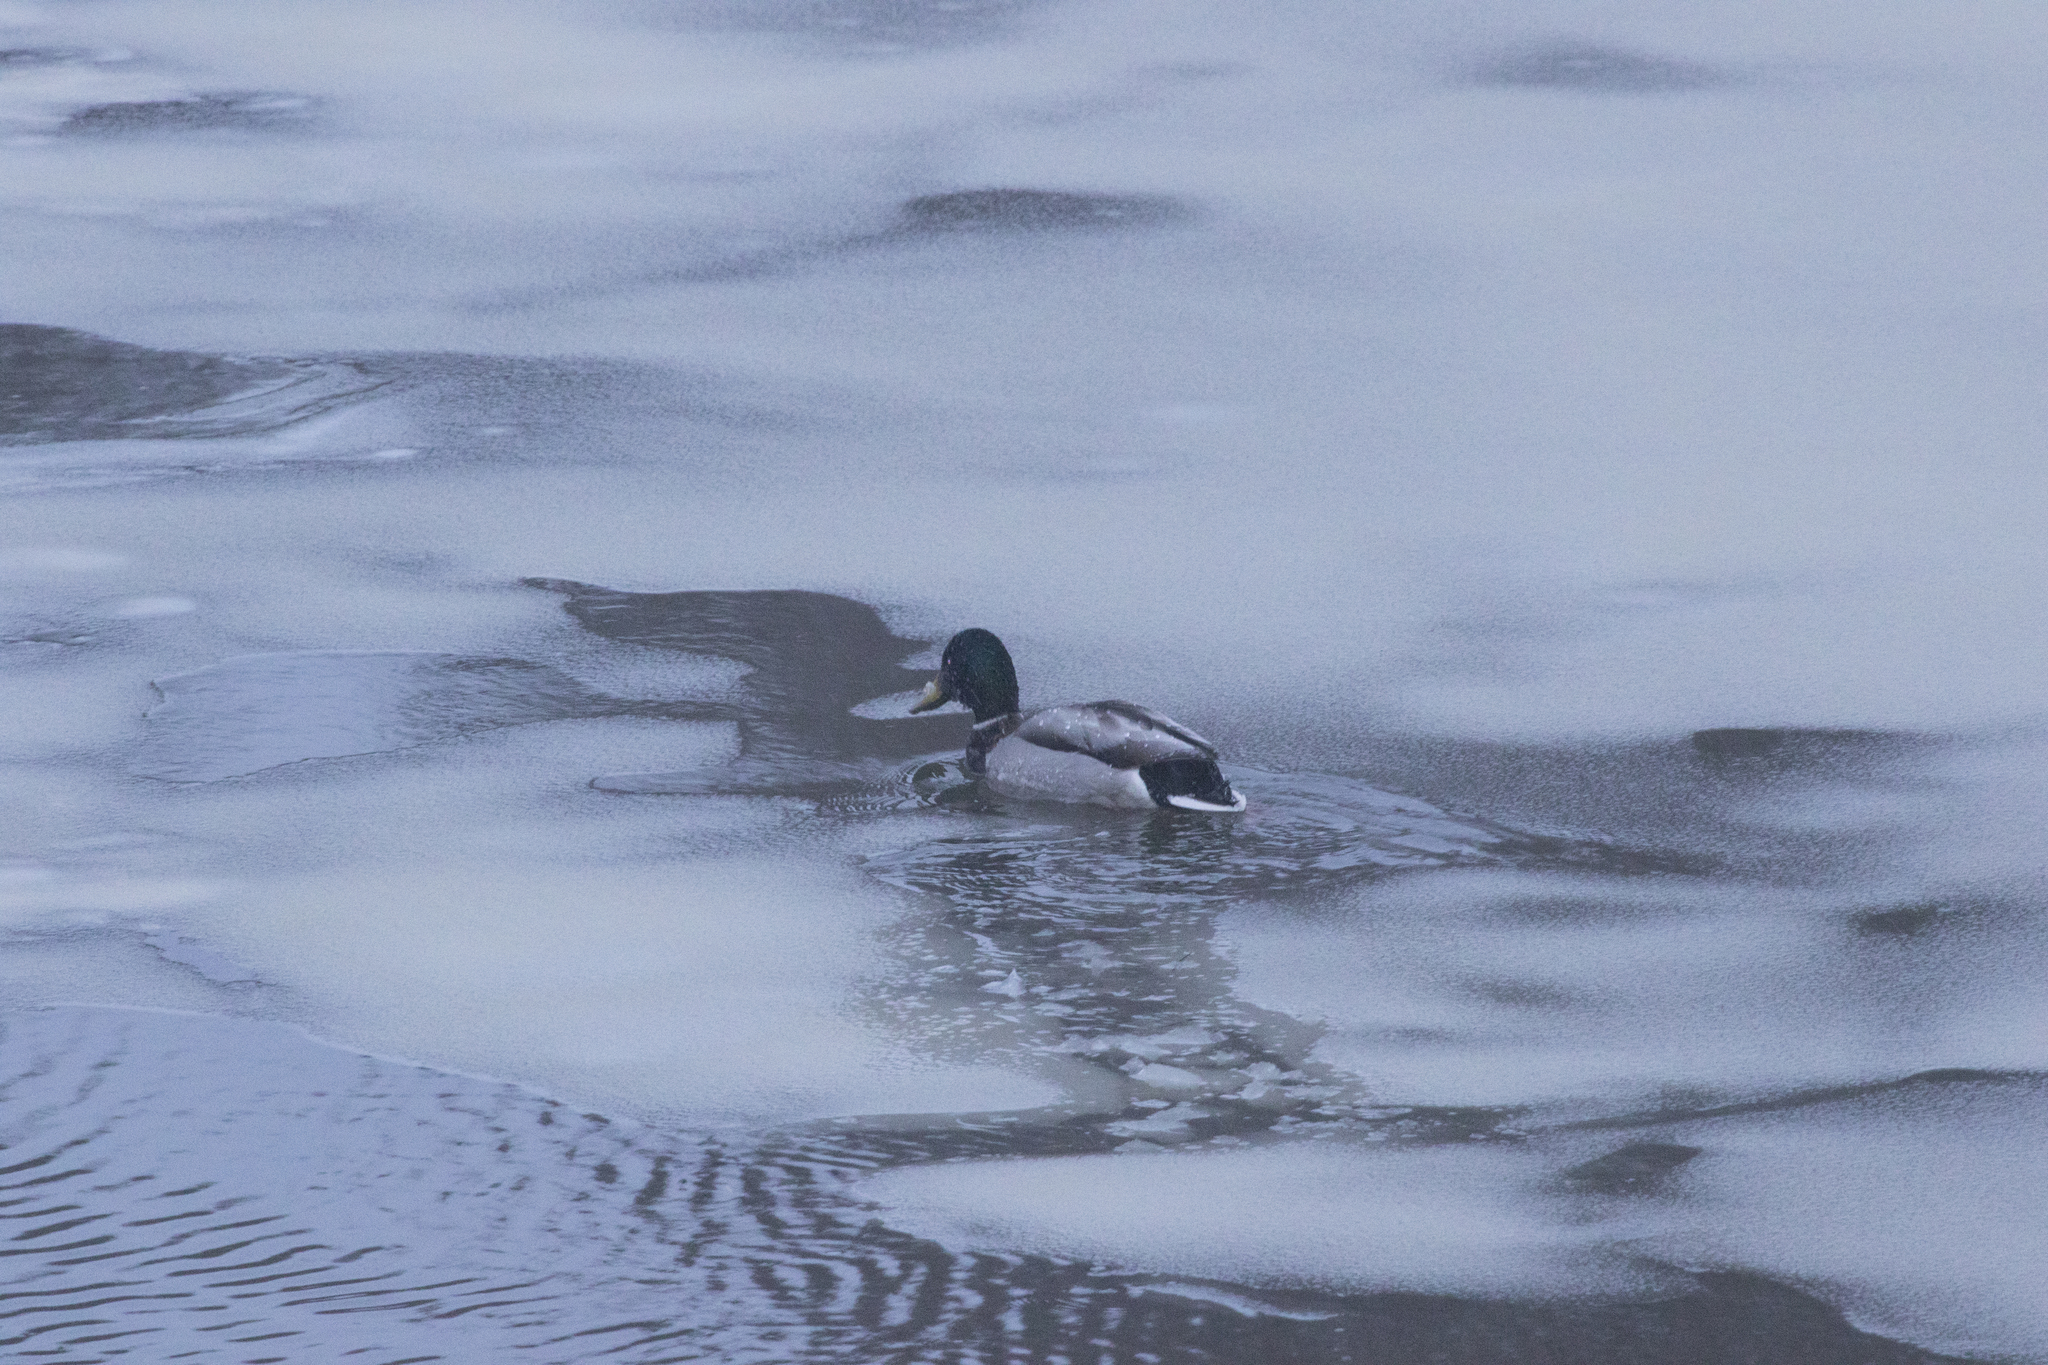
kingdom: Animalia
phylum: Chordata
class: Aves
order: Anseriformes
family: Anatidae
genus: Anas
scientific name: Anas platyrhynchos
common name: Mallard
